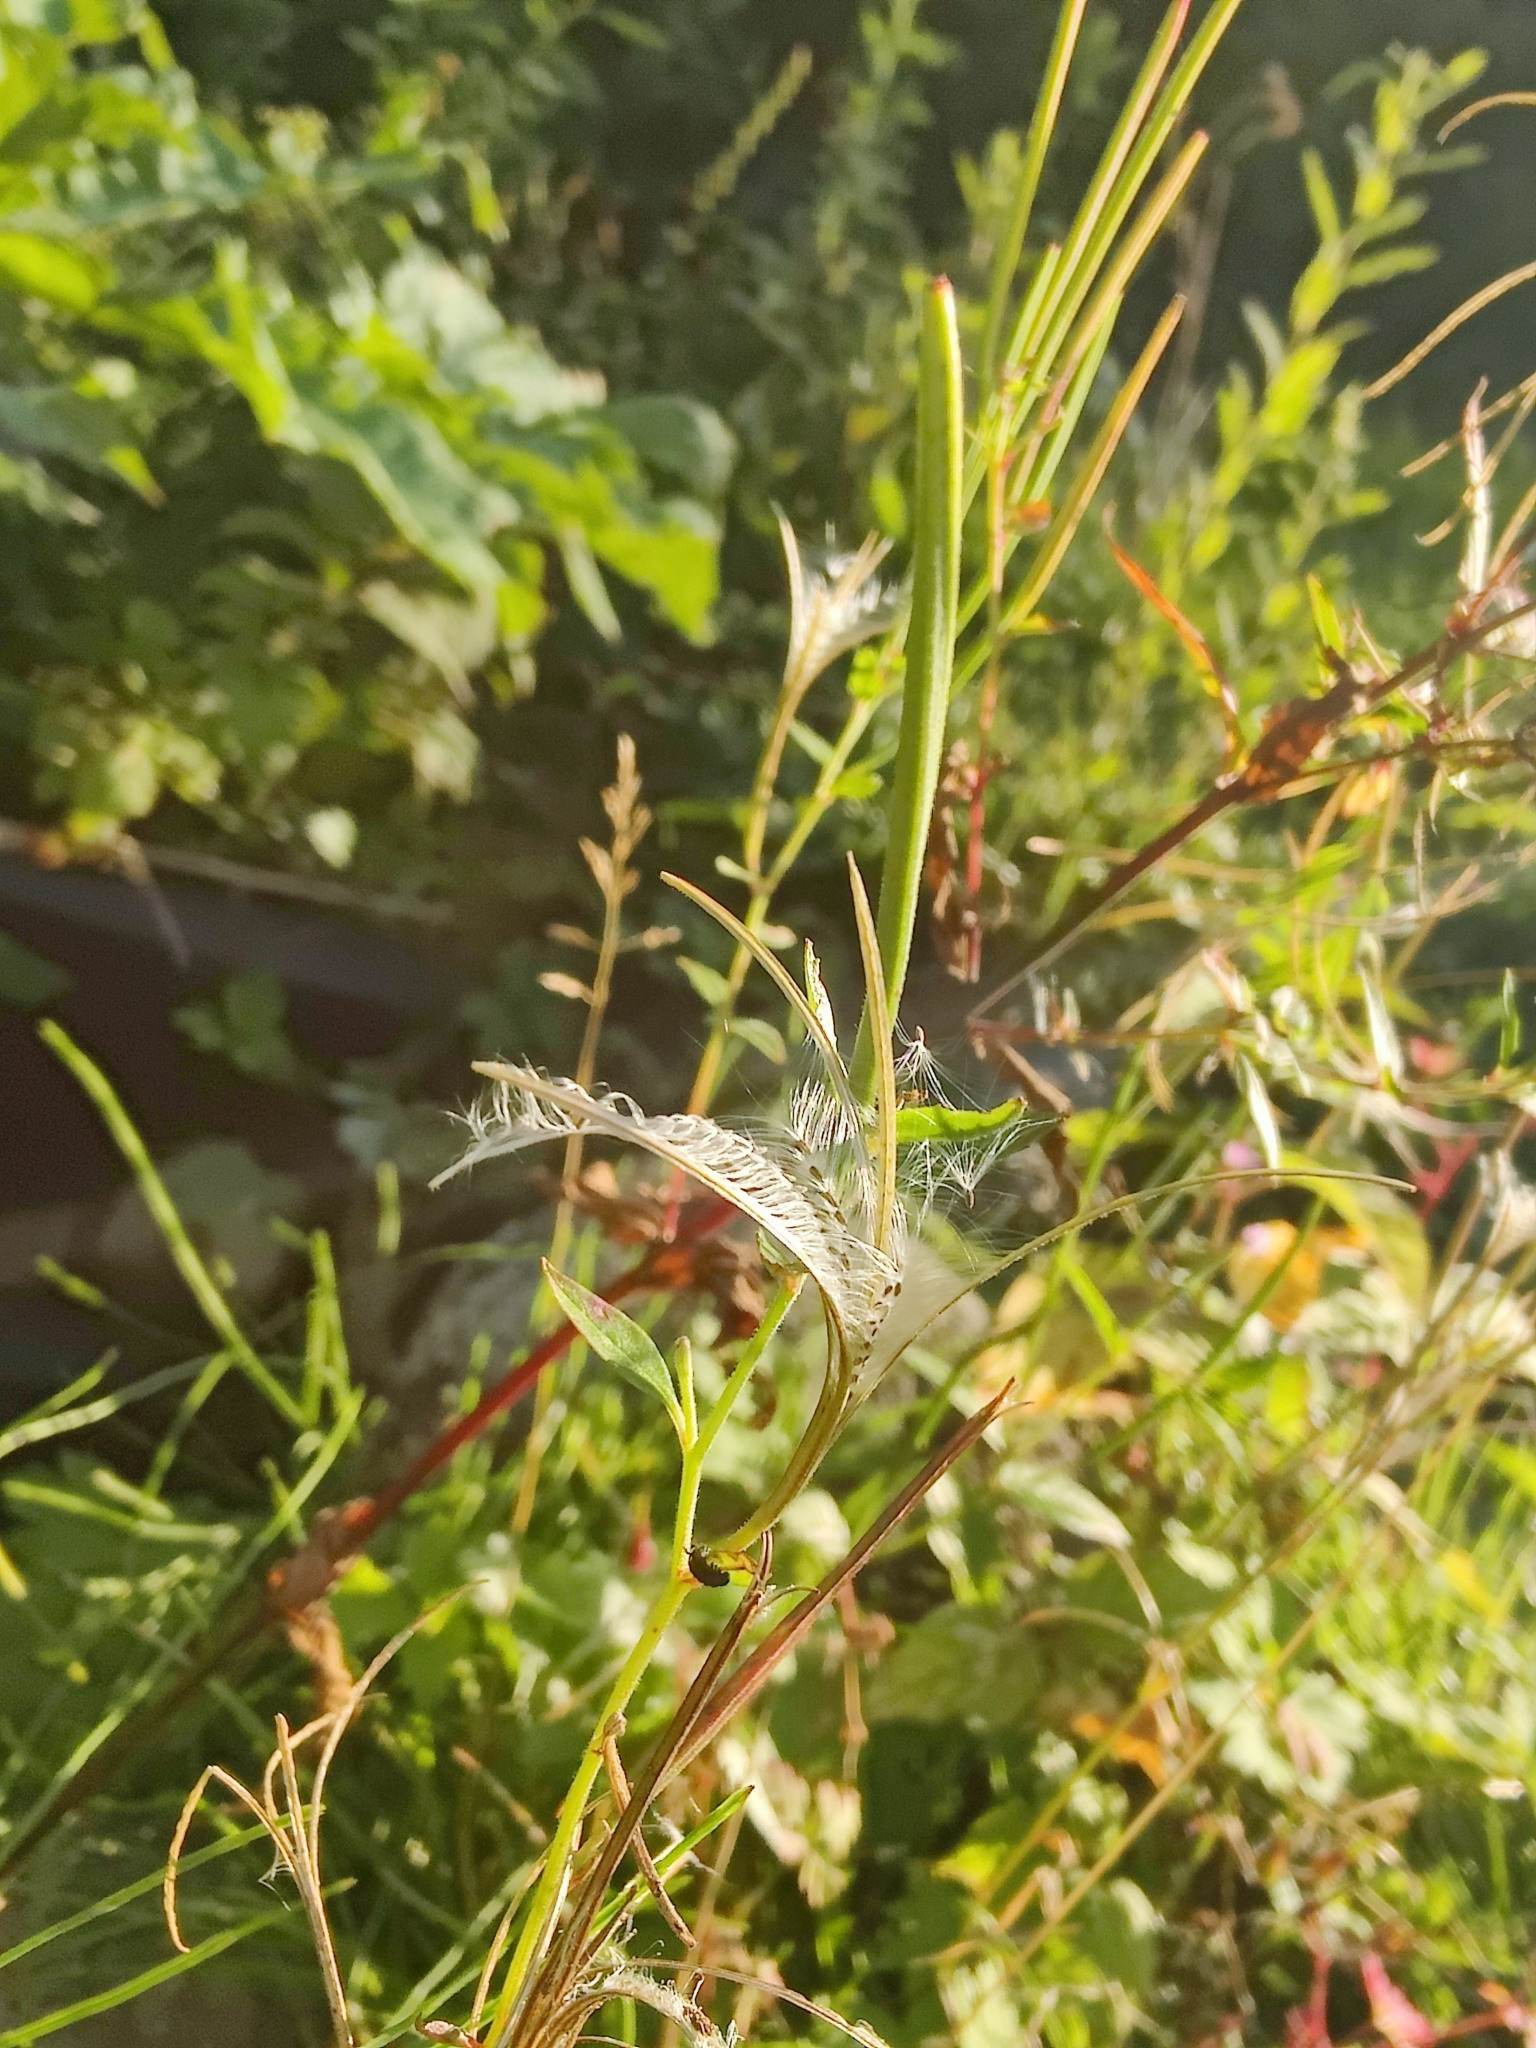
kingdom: Plantae
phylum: Tracheophyta
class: Magnoliopsida
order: Myrtales
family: Onagraceae
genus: Chamaenerion
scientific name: Chamaenerion angustifolium
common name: Fireweed
